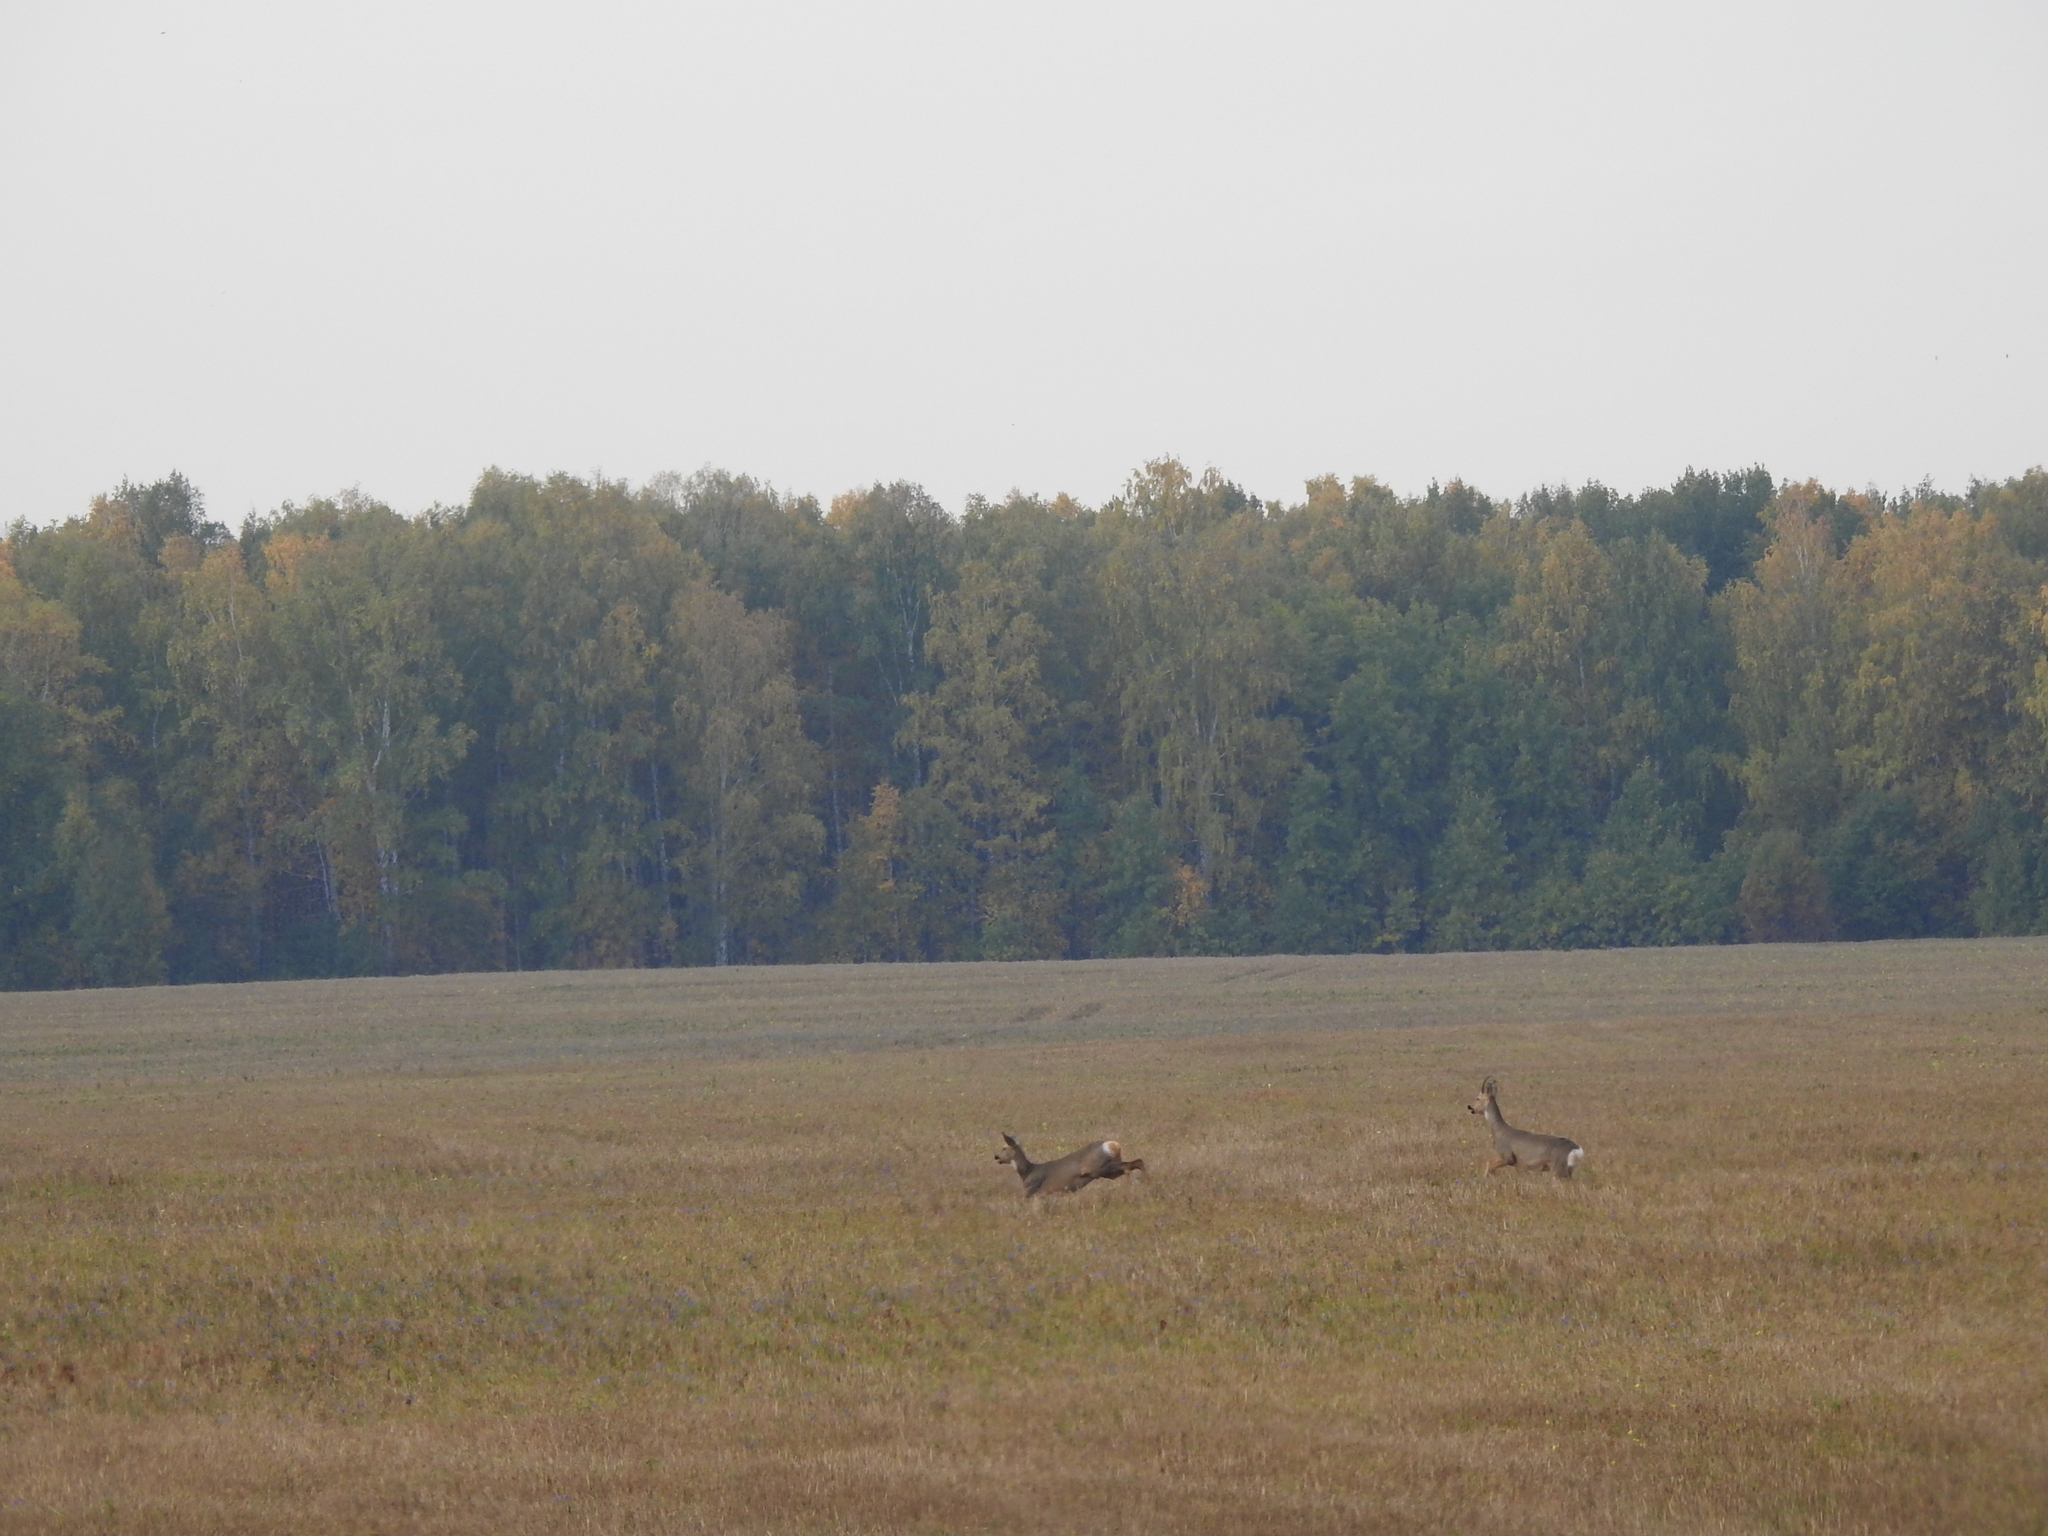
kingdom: Animalia
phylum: Chordata
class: Mammalia
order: Artiodactyla
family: Cervidae
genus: Capreolus
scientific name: Capreolus pygargus
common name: Siberian roe
